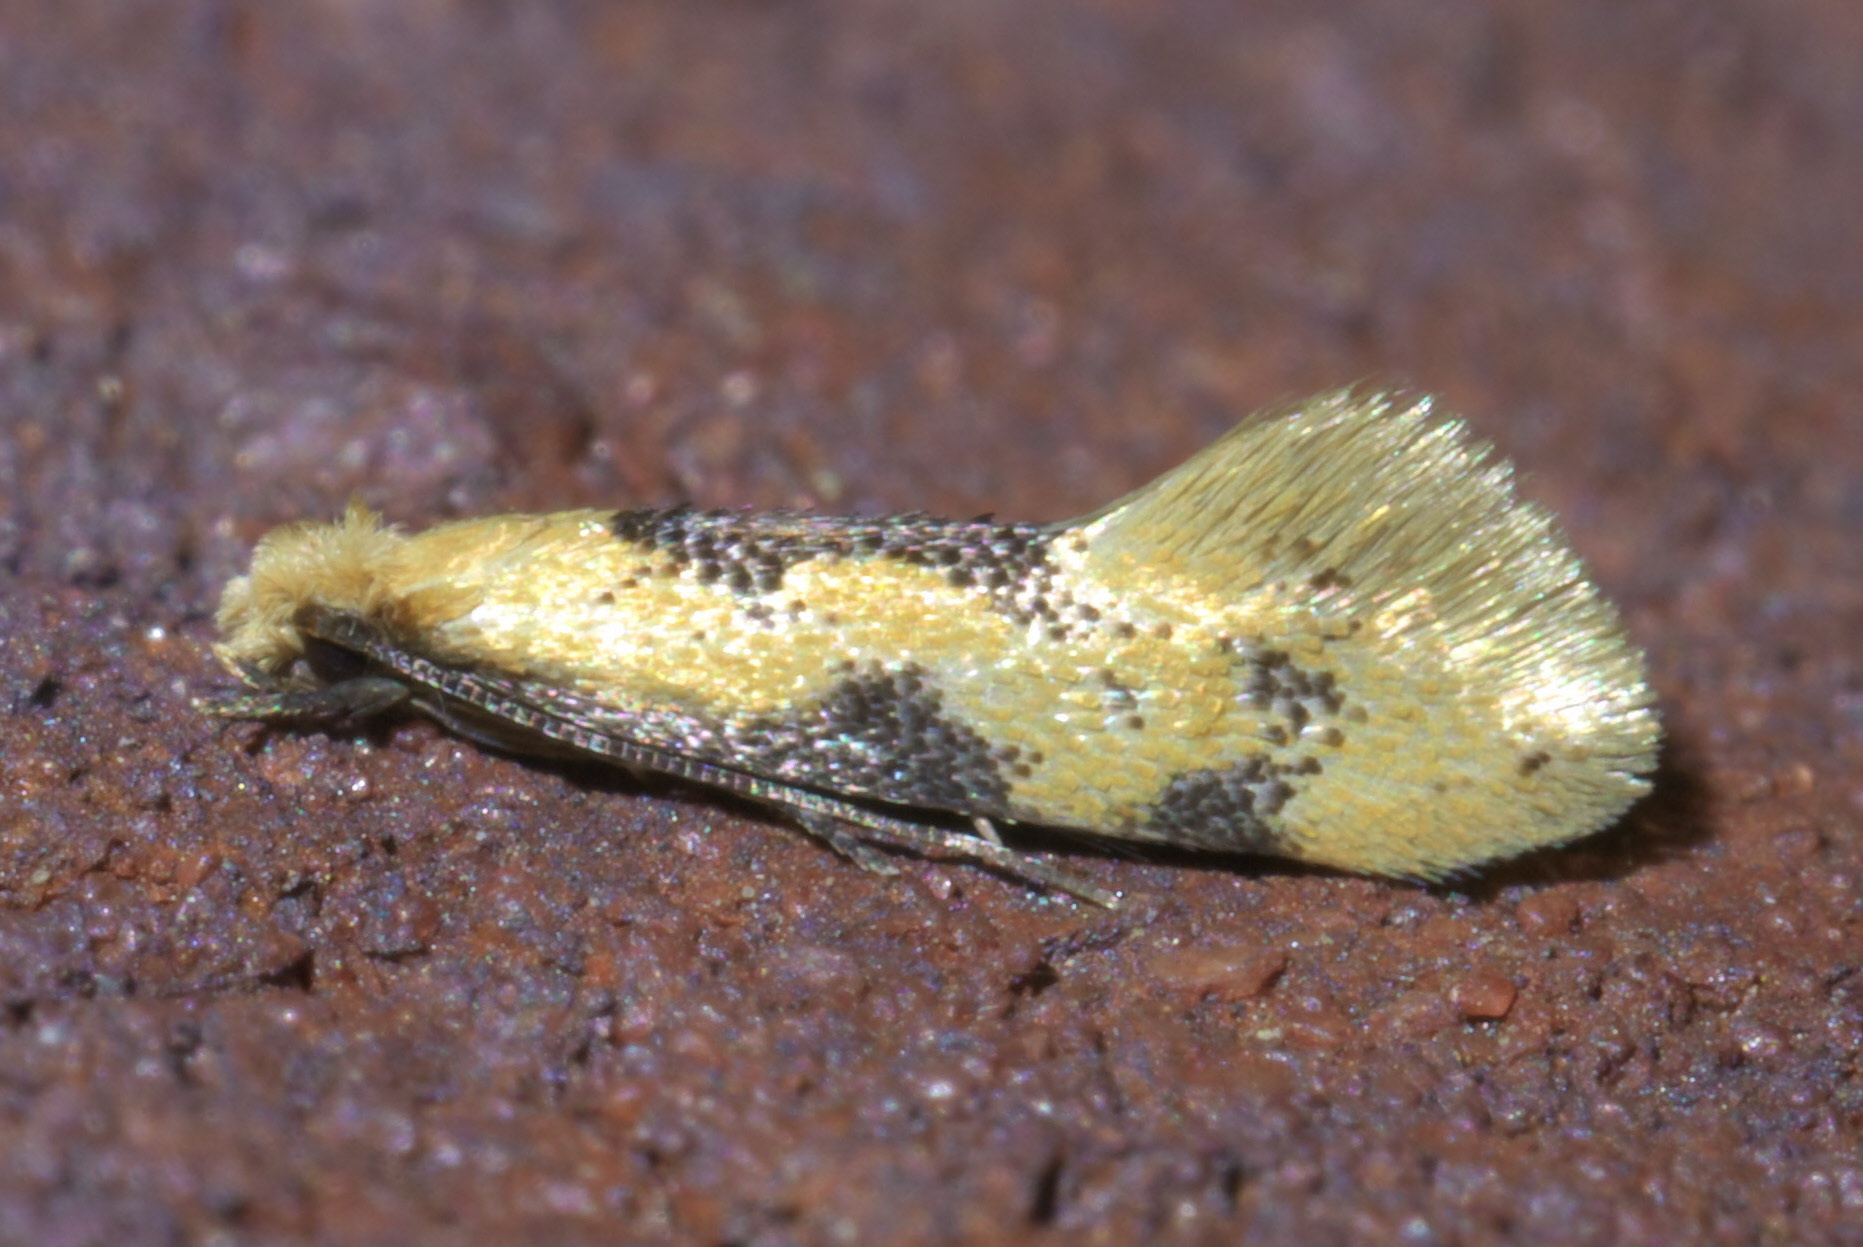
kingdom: Animalia
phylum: Arthropoda
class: Insecta
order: Lepidoptera
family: Meessiidae
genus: Hybroma
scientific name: Hybroma servulella
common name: Yellow wave moth
